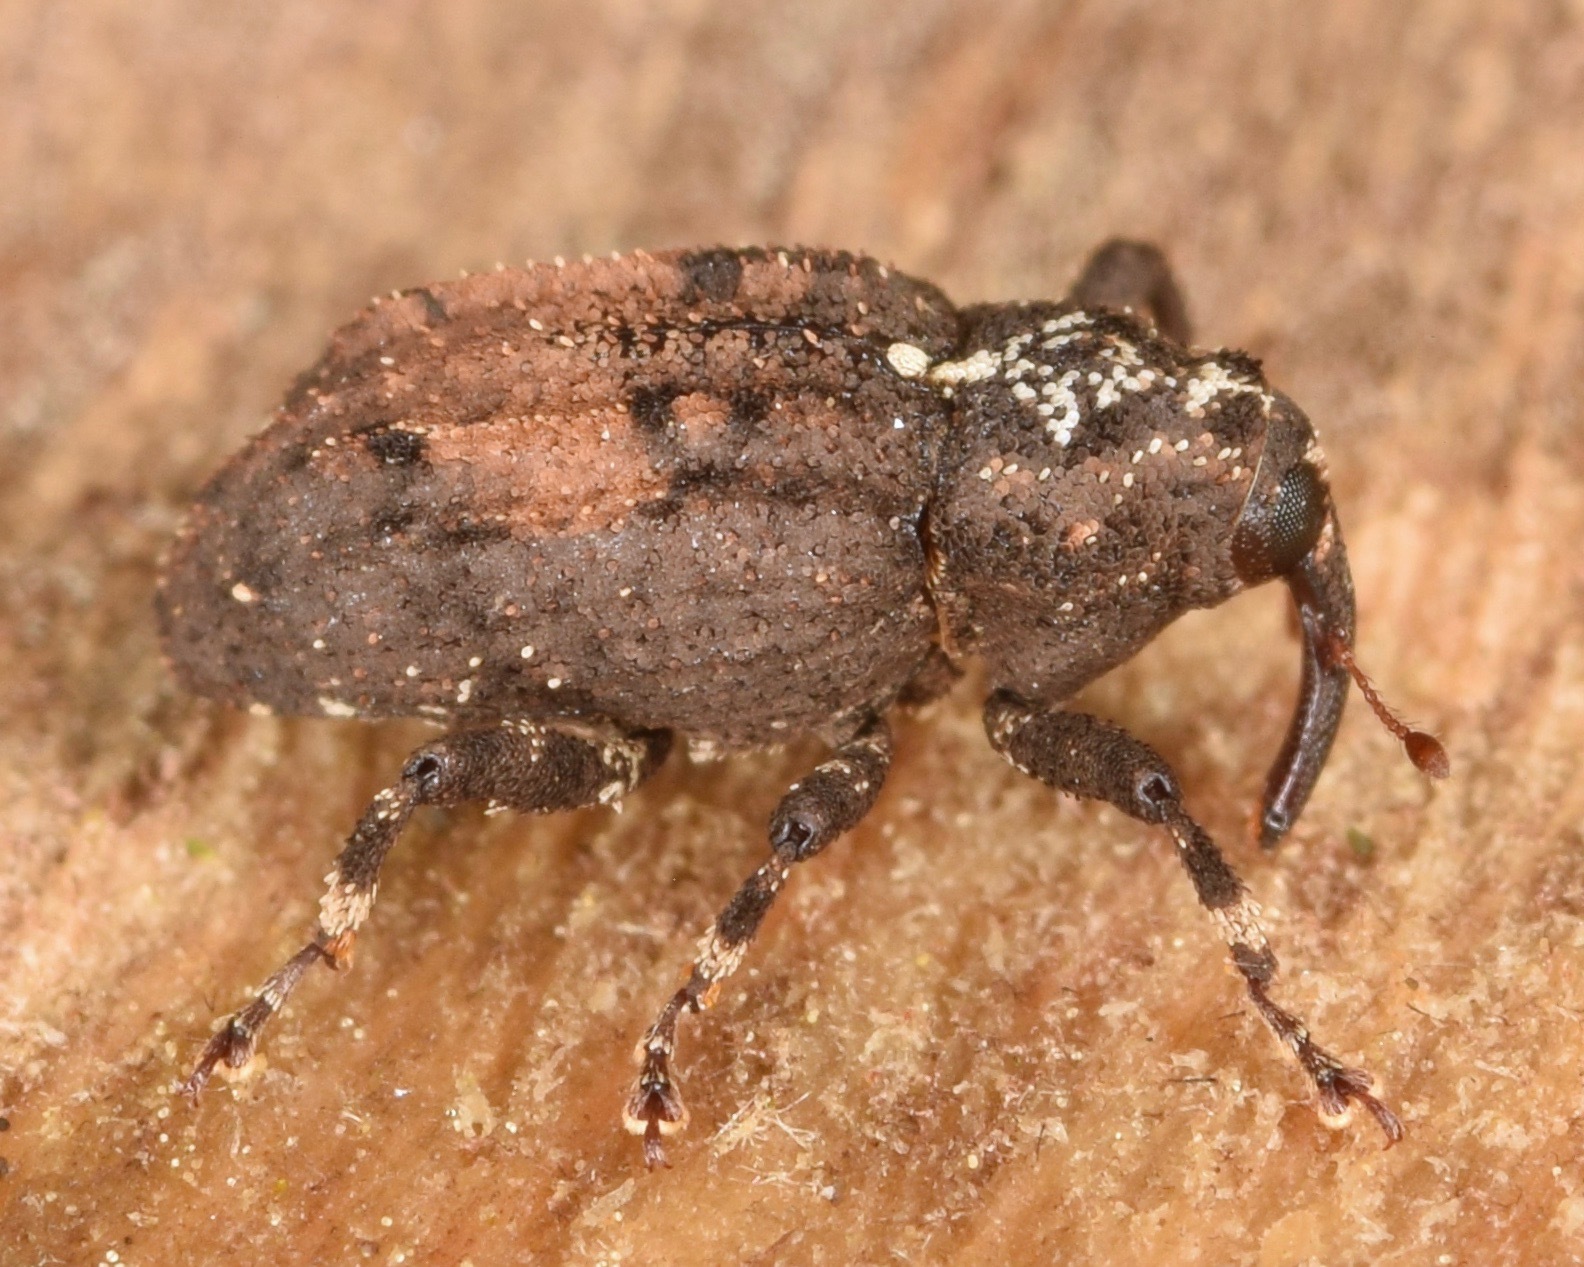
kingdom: Animalia
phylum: Arthropoda
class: Insecta
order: Coleoptera
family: Curculionidae
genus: Cophes
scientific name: Cophes obtentus
